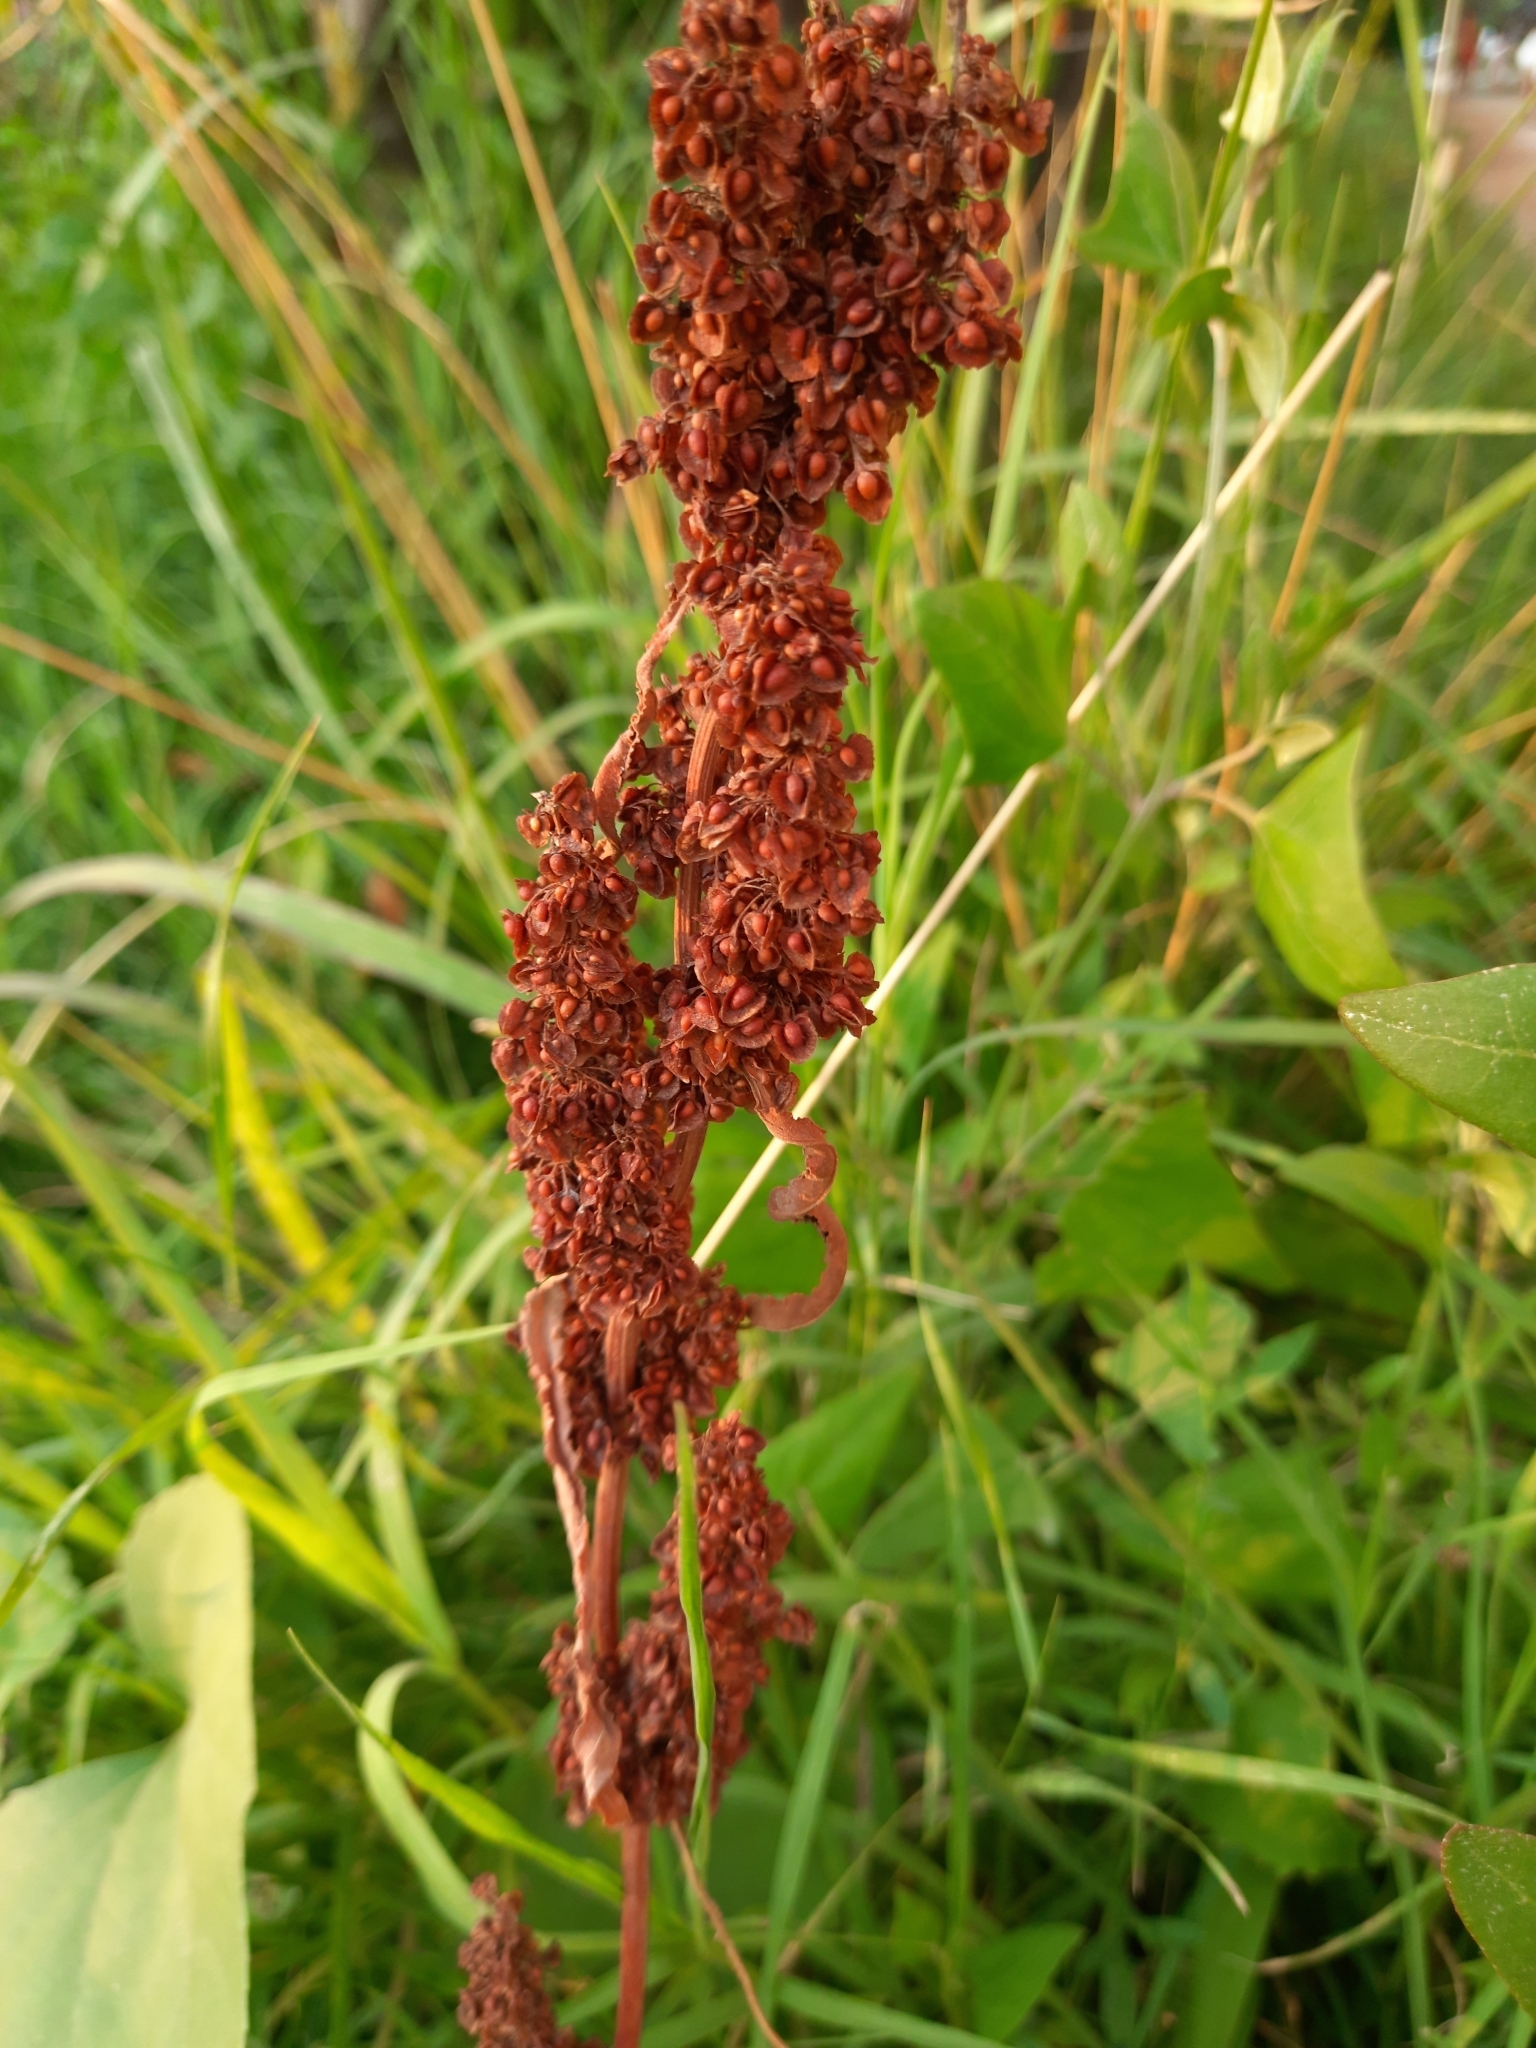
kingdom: Plantae
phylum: Tracheophyta
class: Magnoliopsida
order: Caryophyllales
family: Polygonaceae
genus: Rumex
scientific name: Rumex crispus
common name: Curled dock
